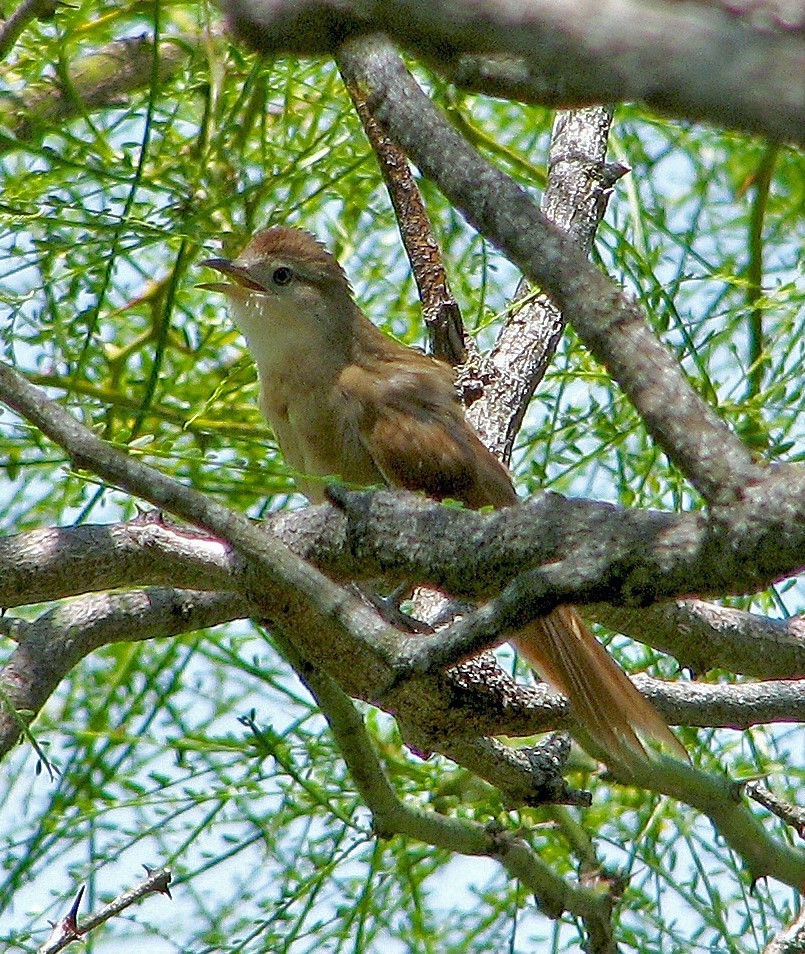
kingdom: Animalia
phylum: Chordata
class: Aves
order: Passeriformes
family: Furnariidae
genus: Phacellodomus
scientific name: Phacellodomus striaticollis
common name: Freckle-breasted thornbird
